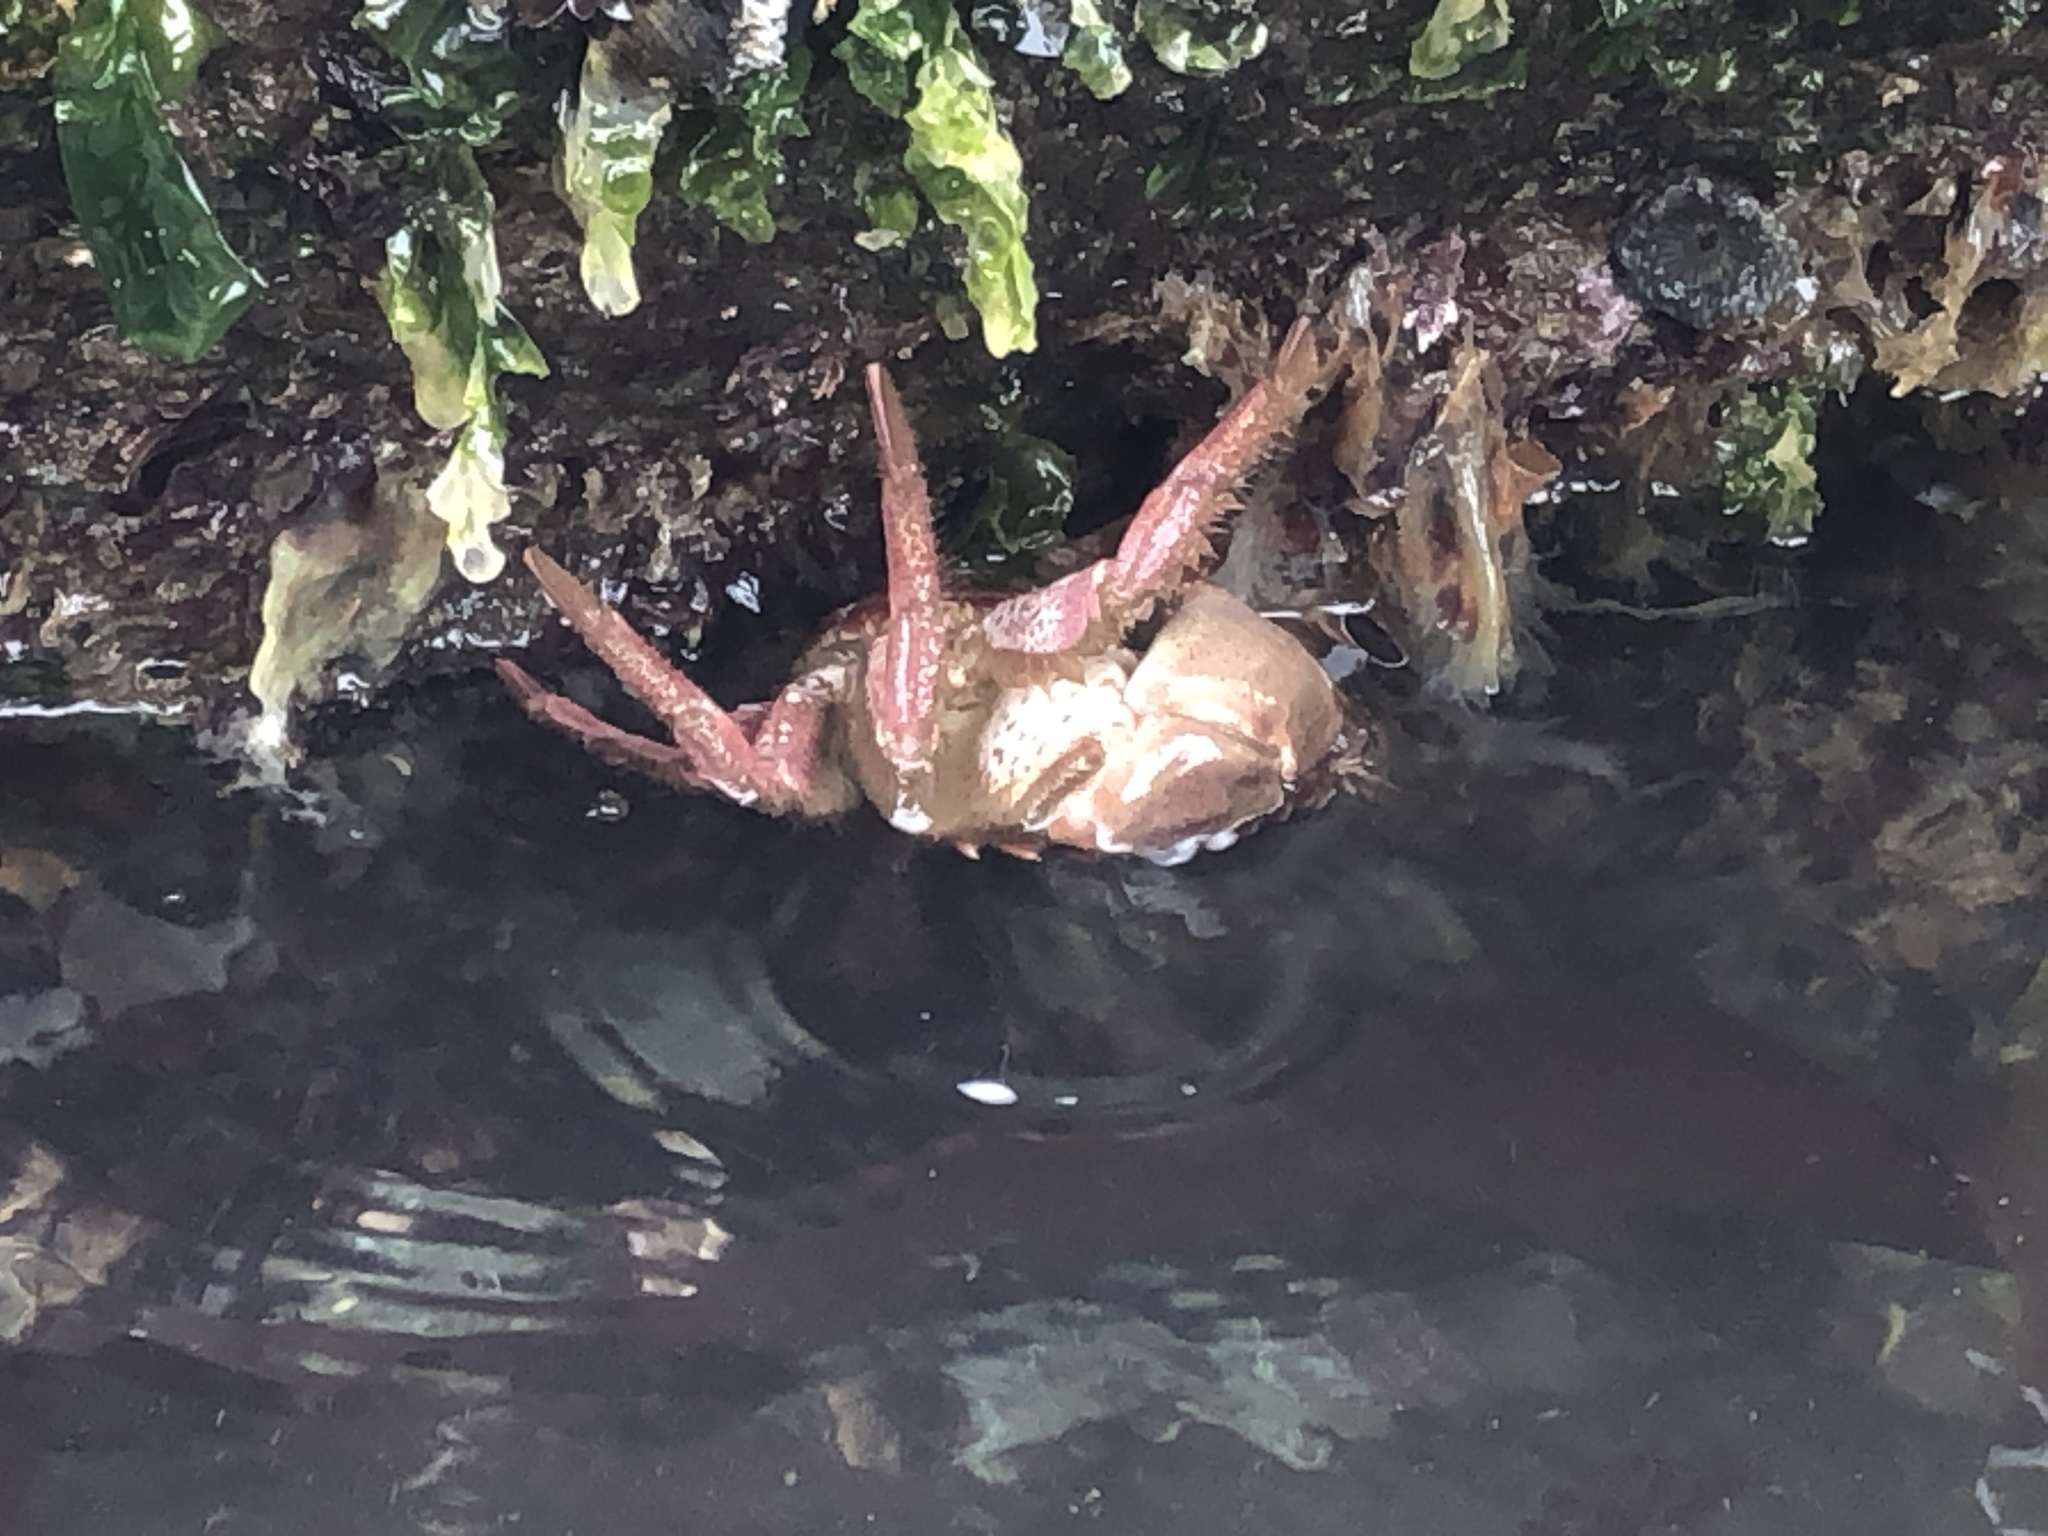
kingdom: Animalia
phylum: Arthropoda
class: Malacostraca
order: Decapoda
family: Cancridae
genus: Romaleon
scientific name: Romaleon antennarium
